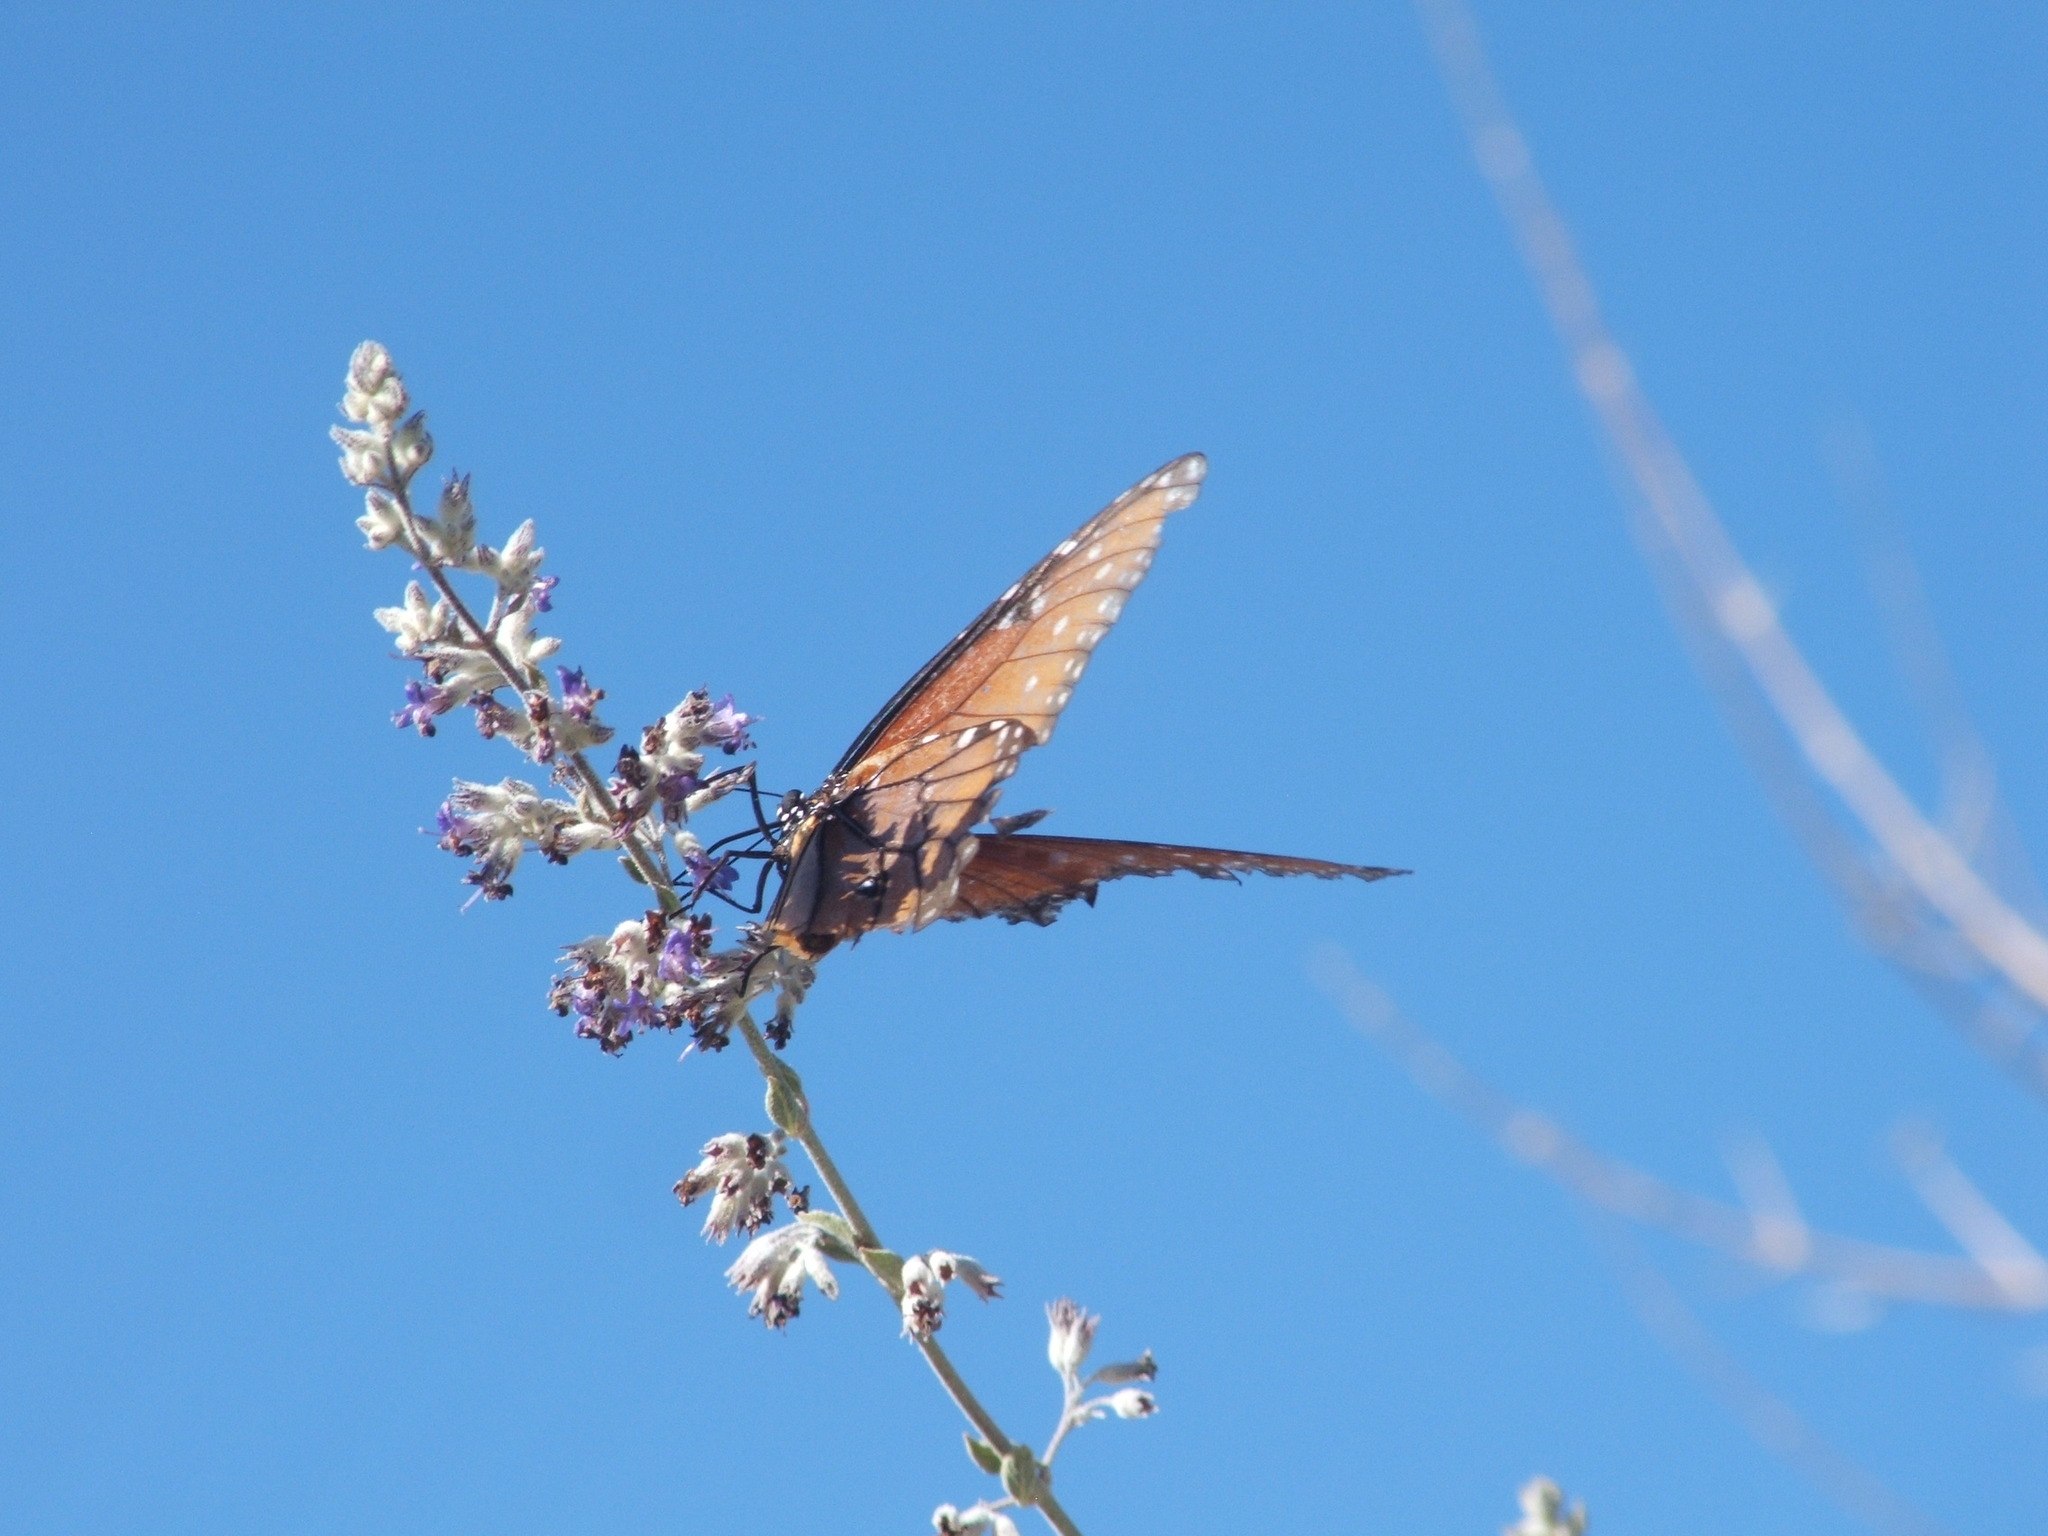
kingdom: Animalia
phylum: Arthropoda
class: Insecta
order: Lepidoptera
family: Nymphalidae
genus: Danaus
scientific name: Danaus gilippus
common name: Queen
